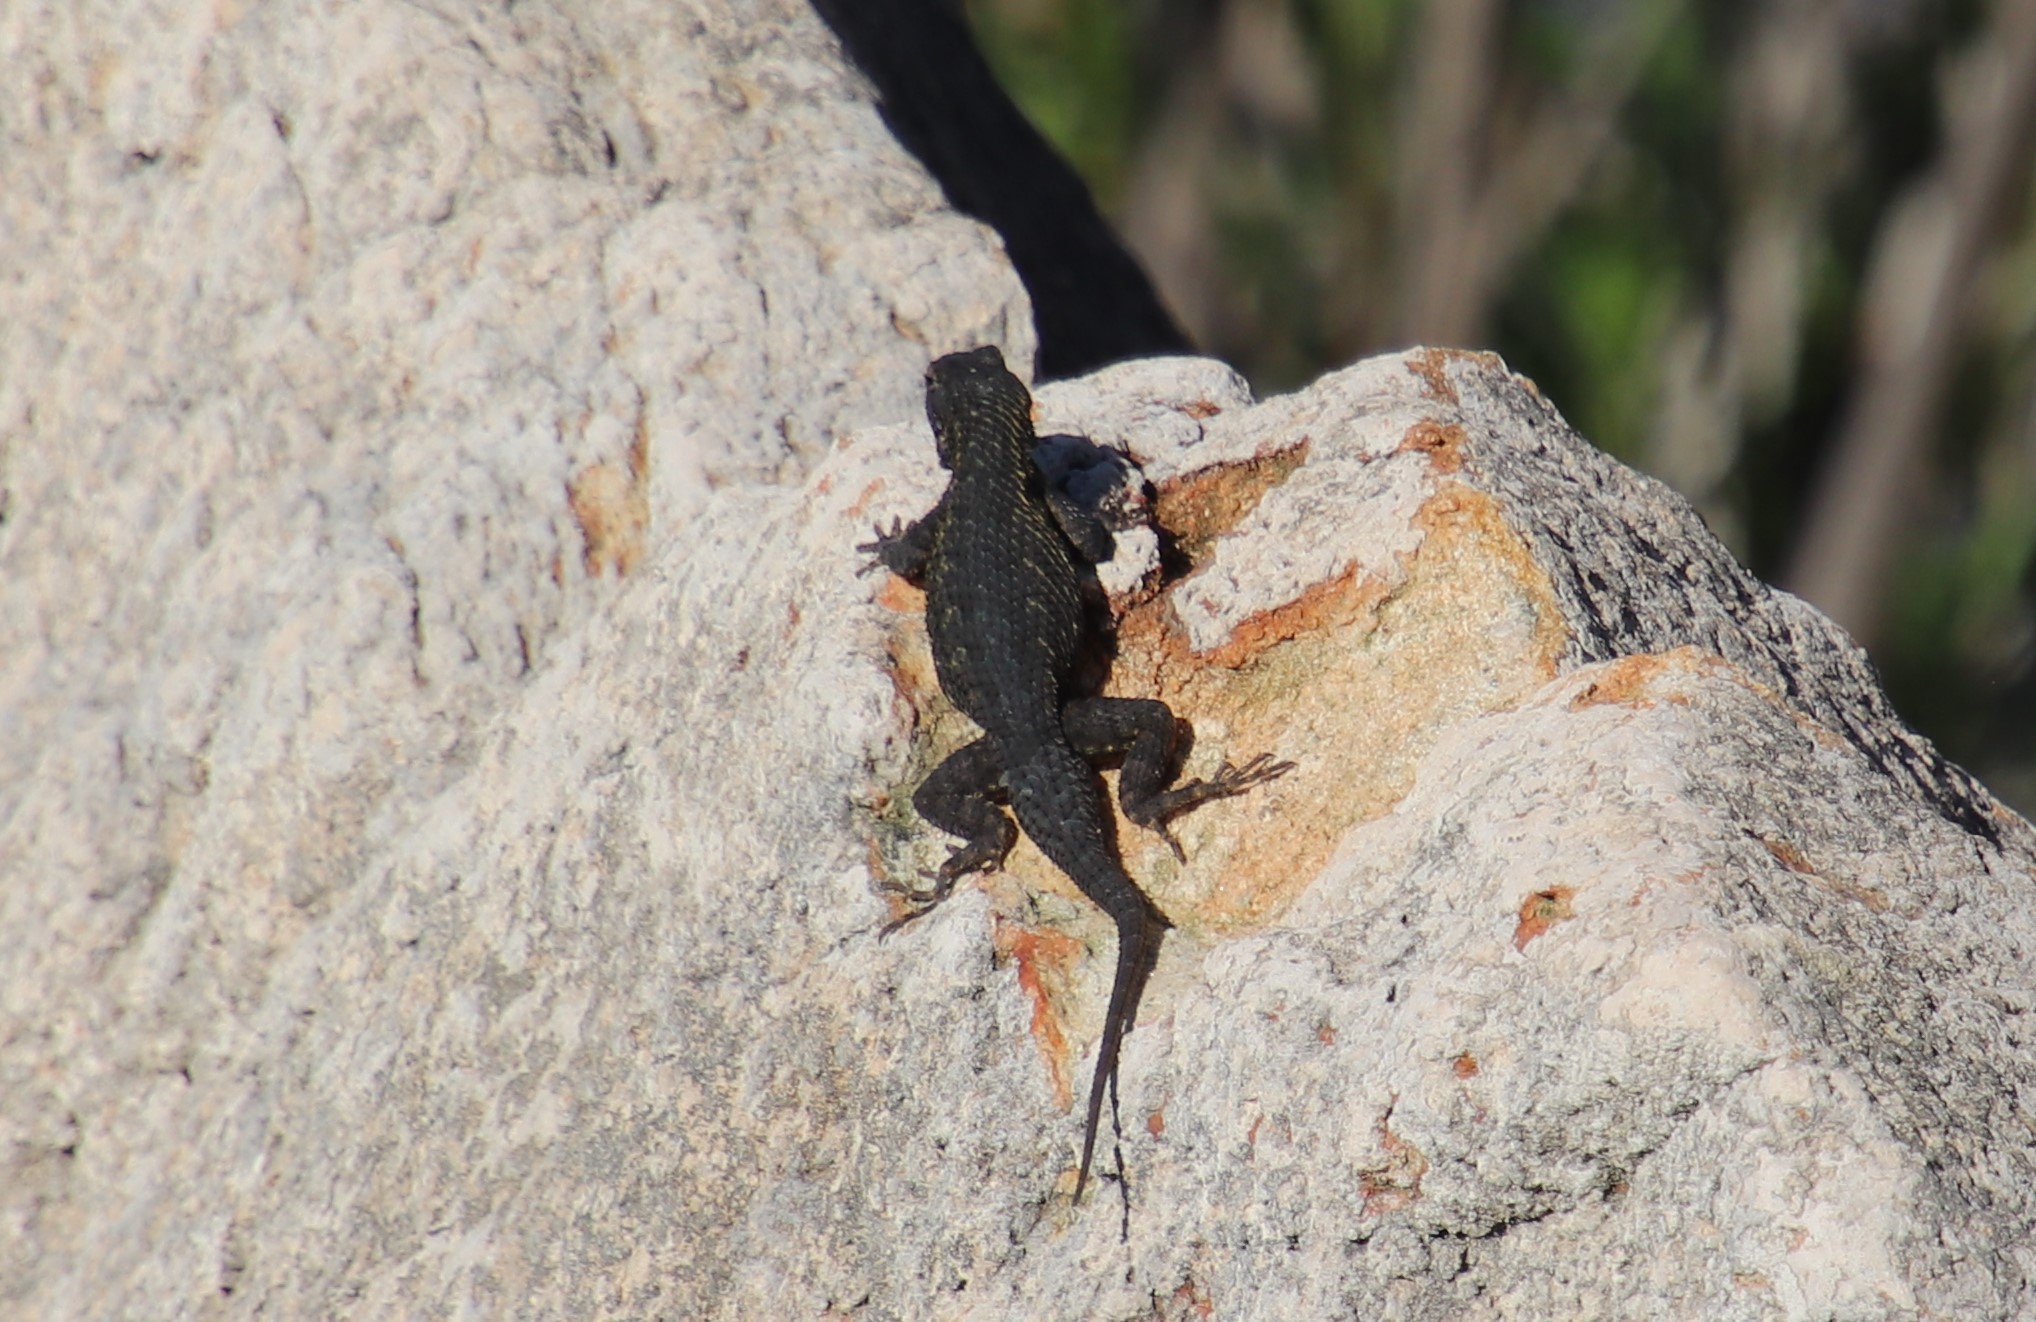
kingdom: Animalia
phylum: Chordata
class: Squamata
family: Phrynosomatidae
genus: Sceloporus
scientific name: Sceloporus occidentalis
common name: Western fence lizard
